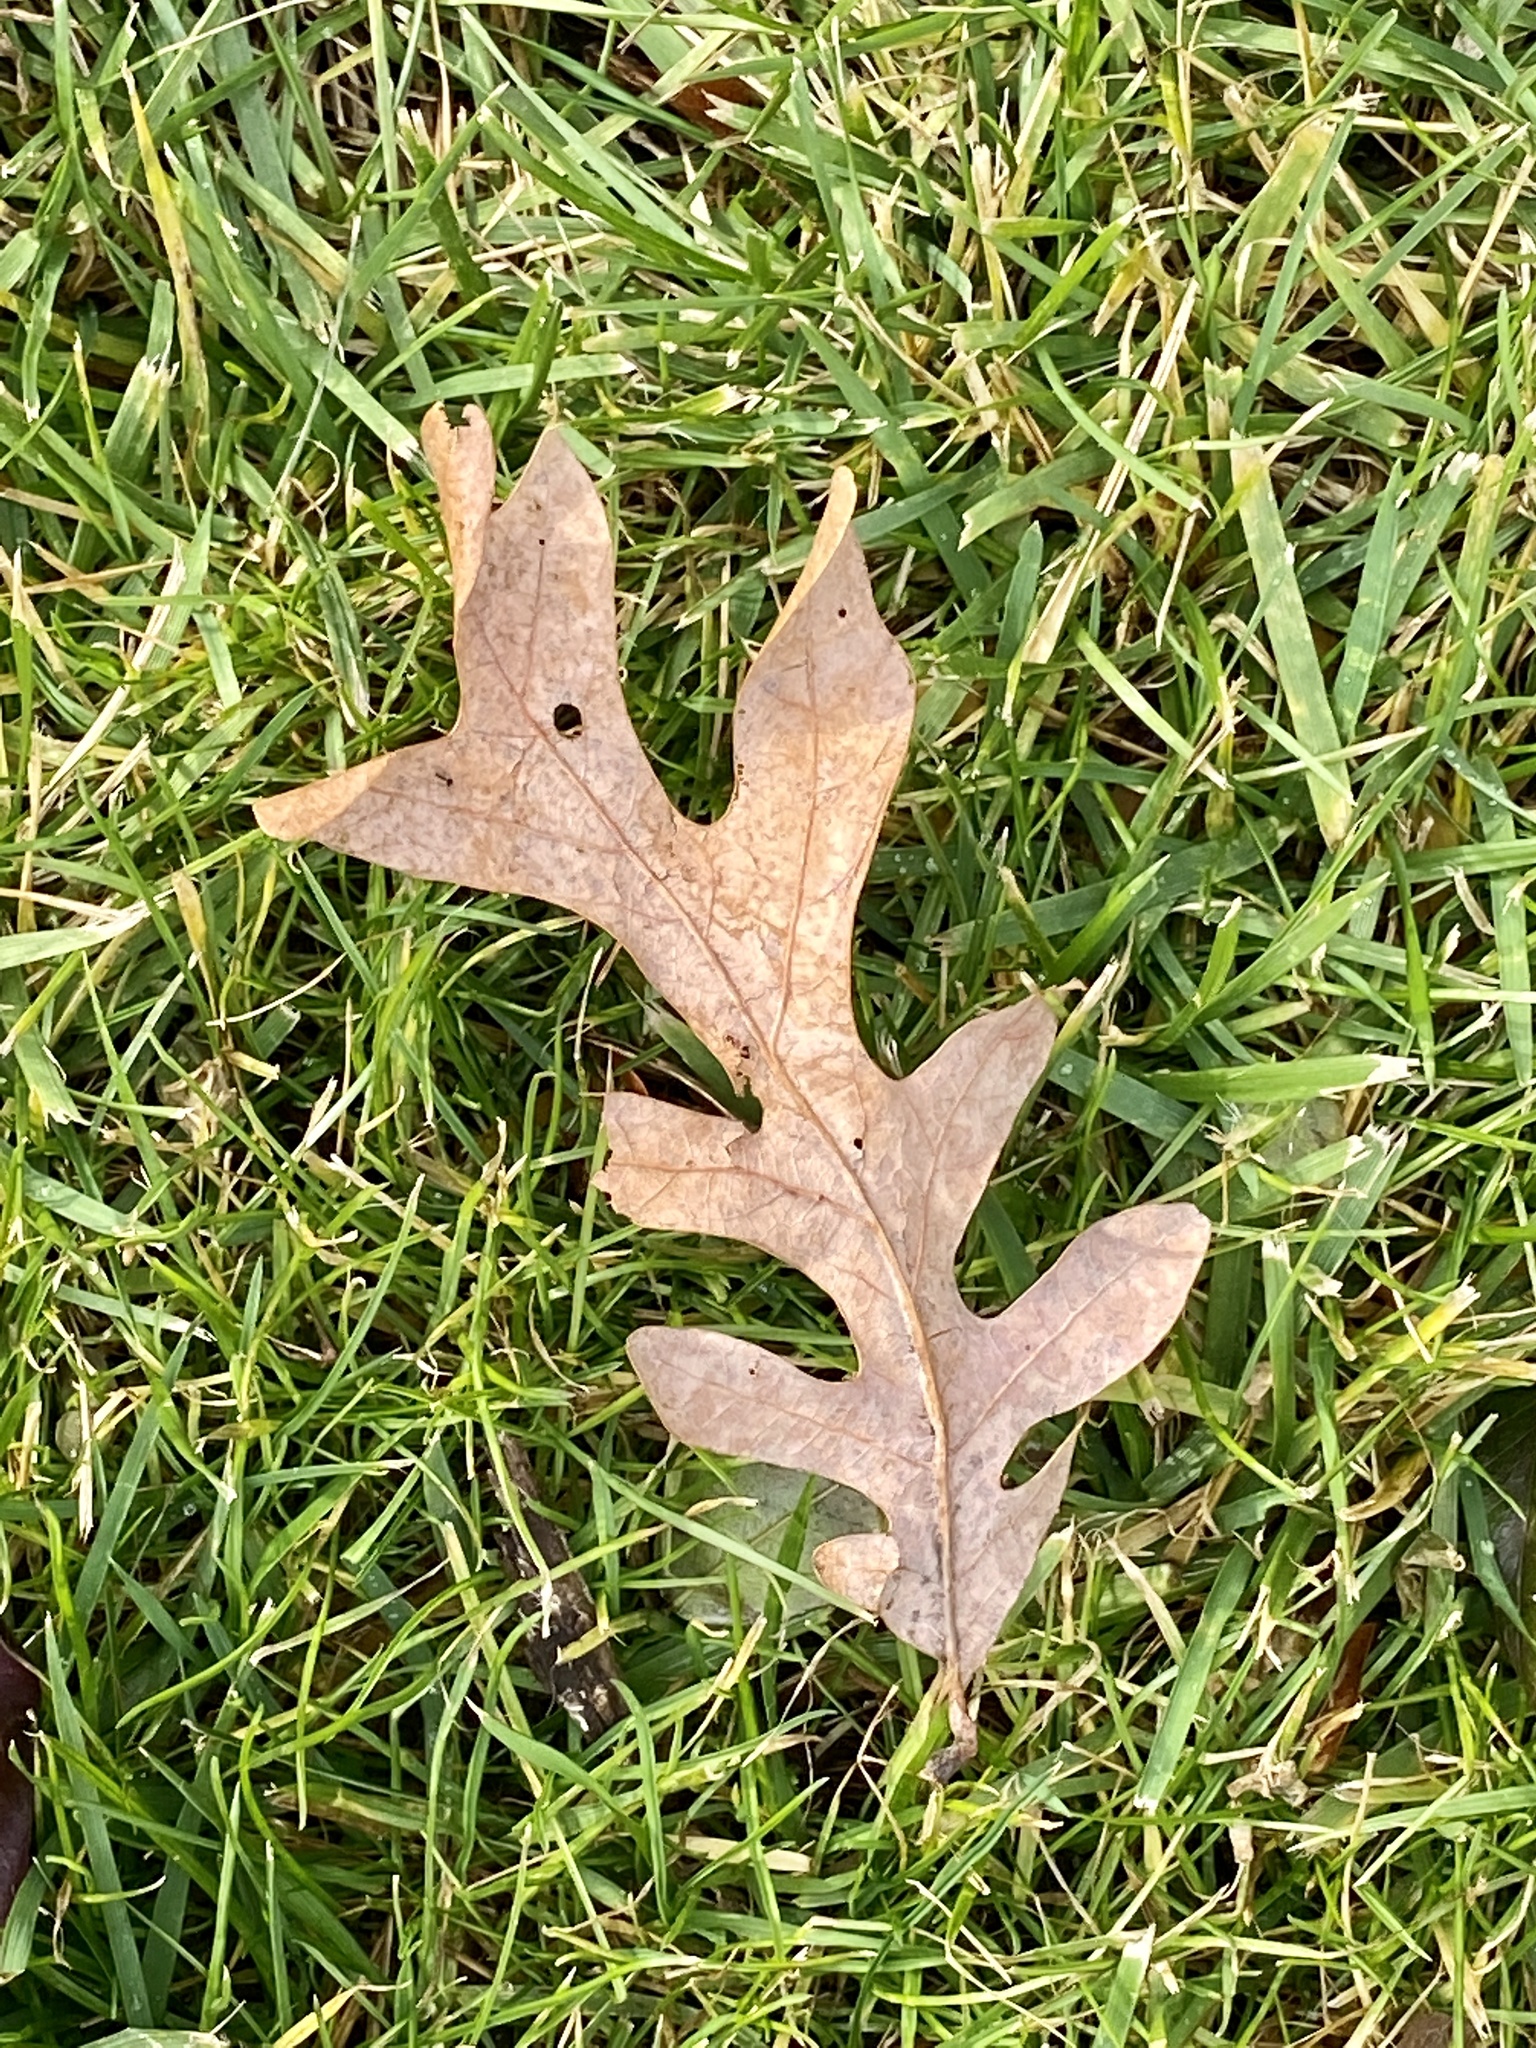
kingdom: Plantae
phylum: Tracheophyta
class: Magnoliopsida
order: Fagales
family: Fagaceae
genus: Quercus
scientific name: Quercus alba
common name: White oak
